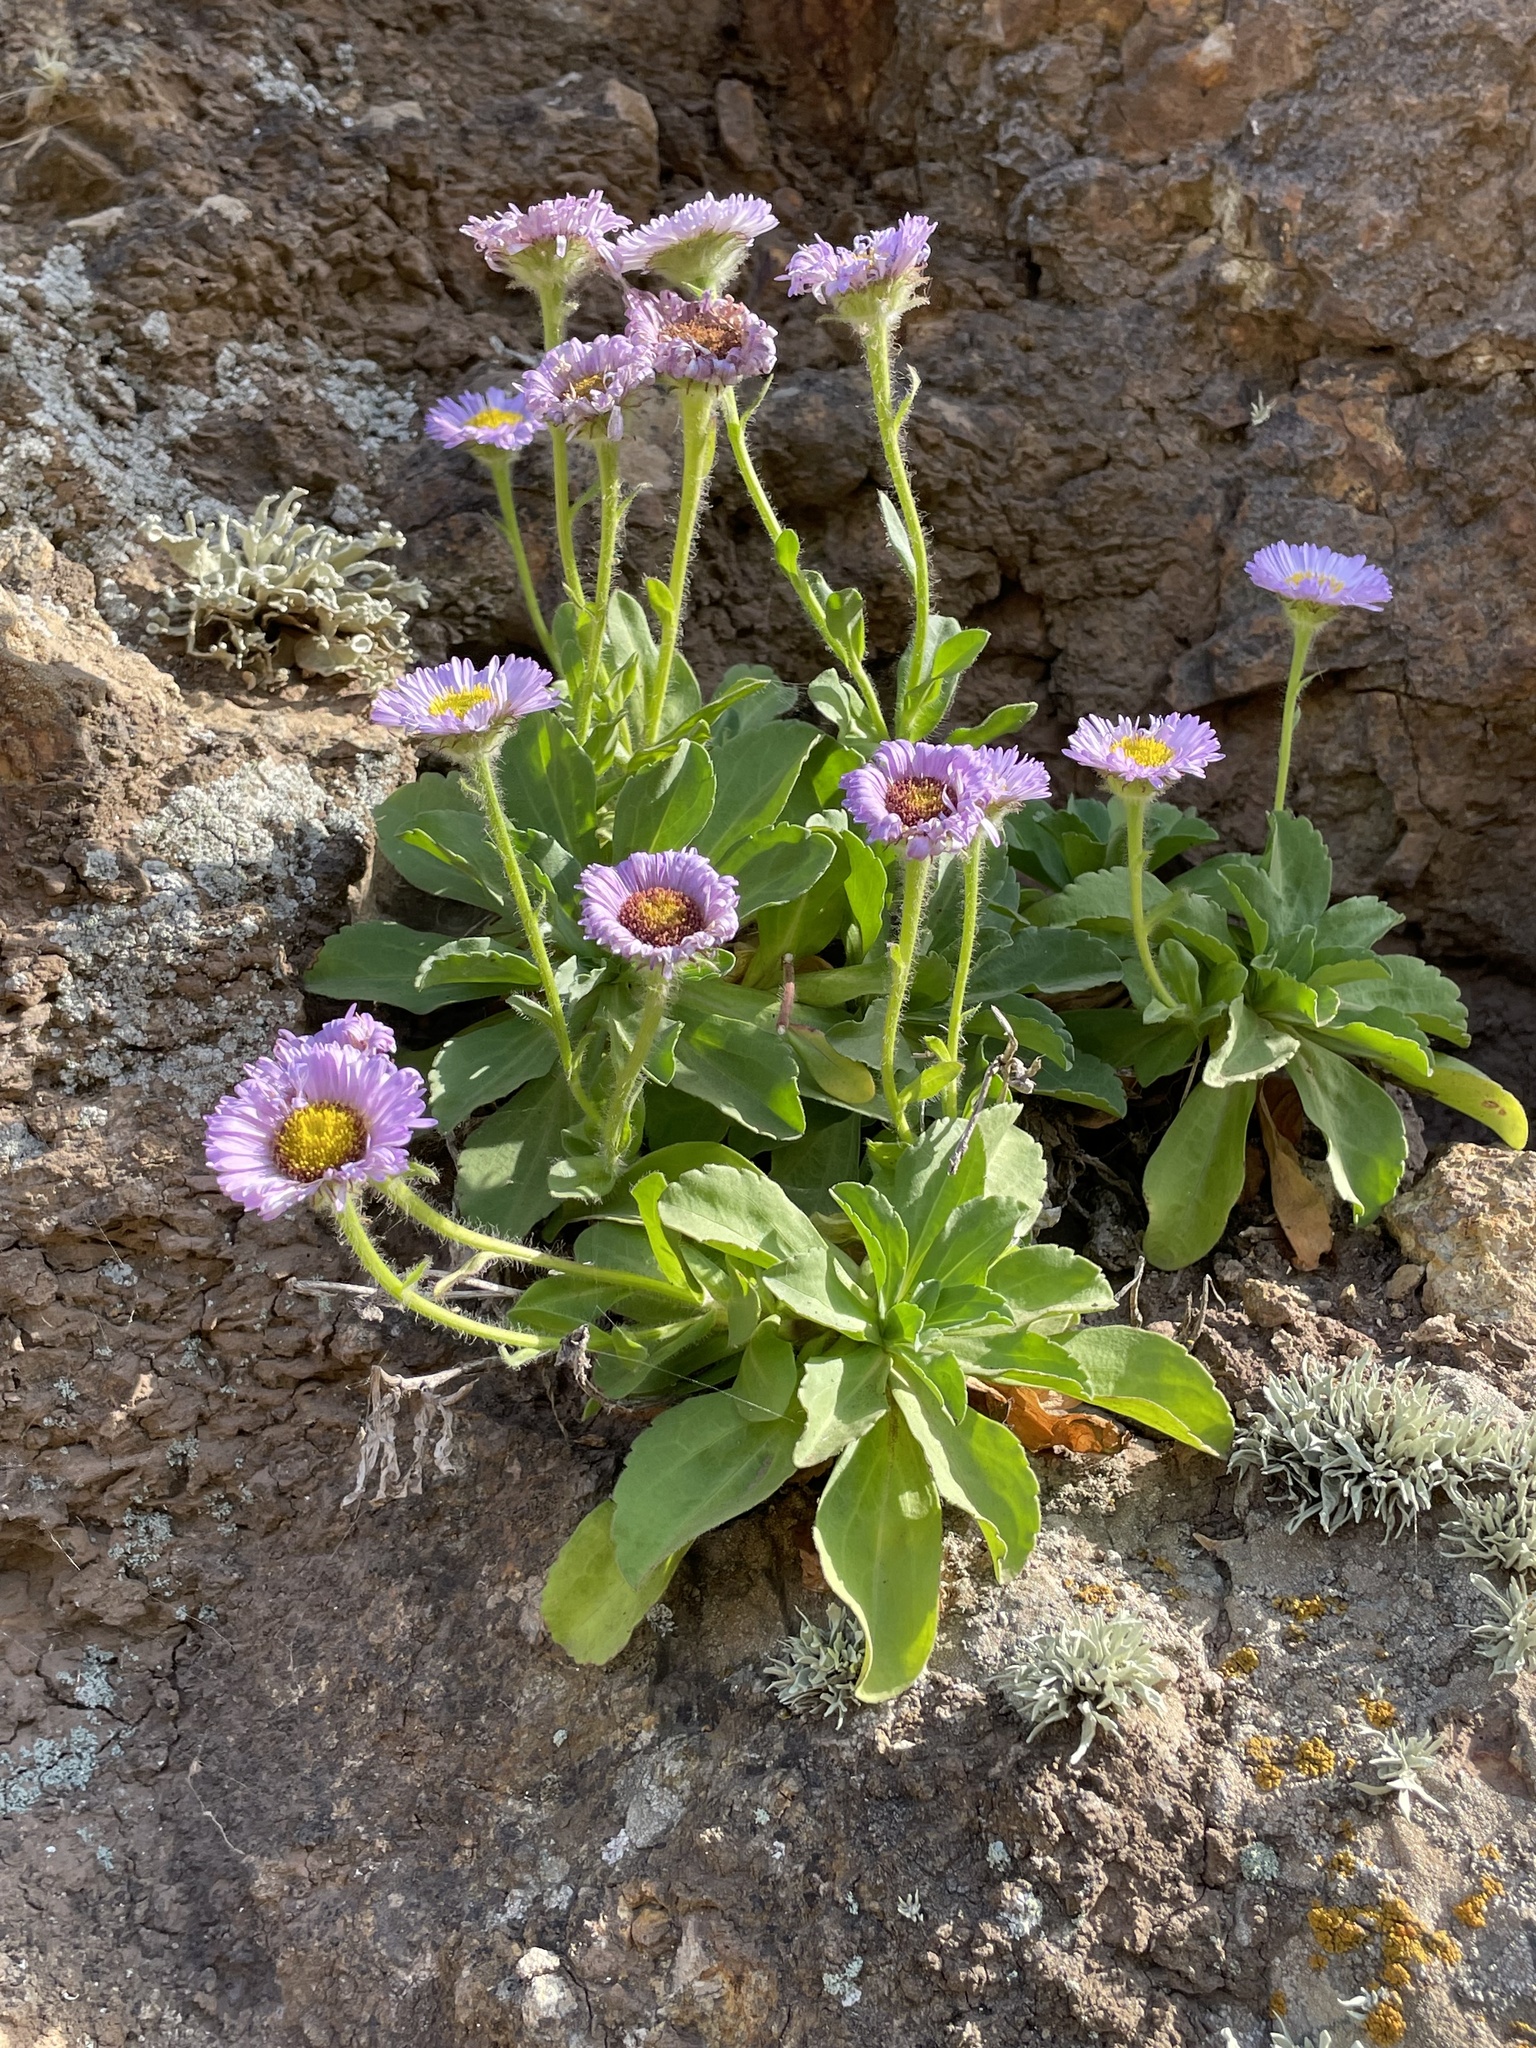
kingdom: Plantae
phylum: Tracheophyta
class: Magnoliopsida
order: Asterales
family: Asteraceae
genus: Erigeron
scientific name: Erigeron glaucus
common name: Seaside daisy
